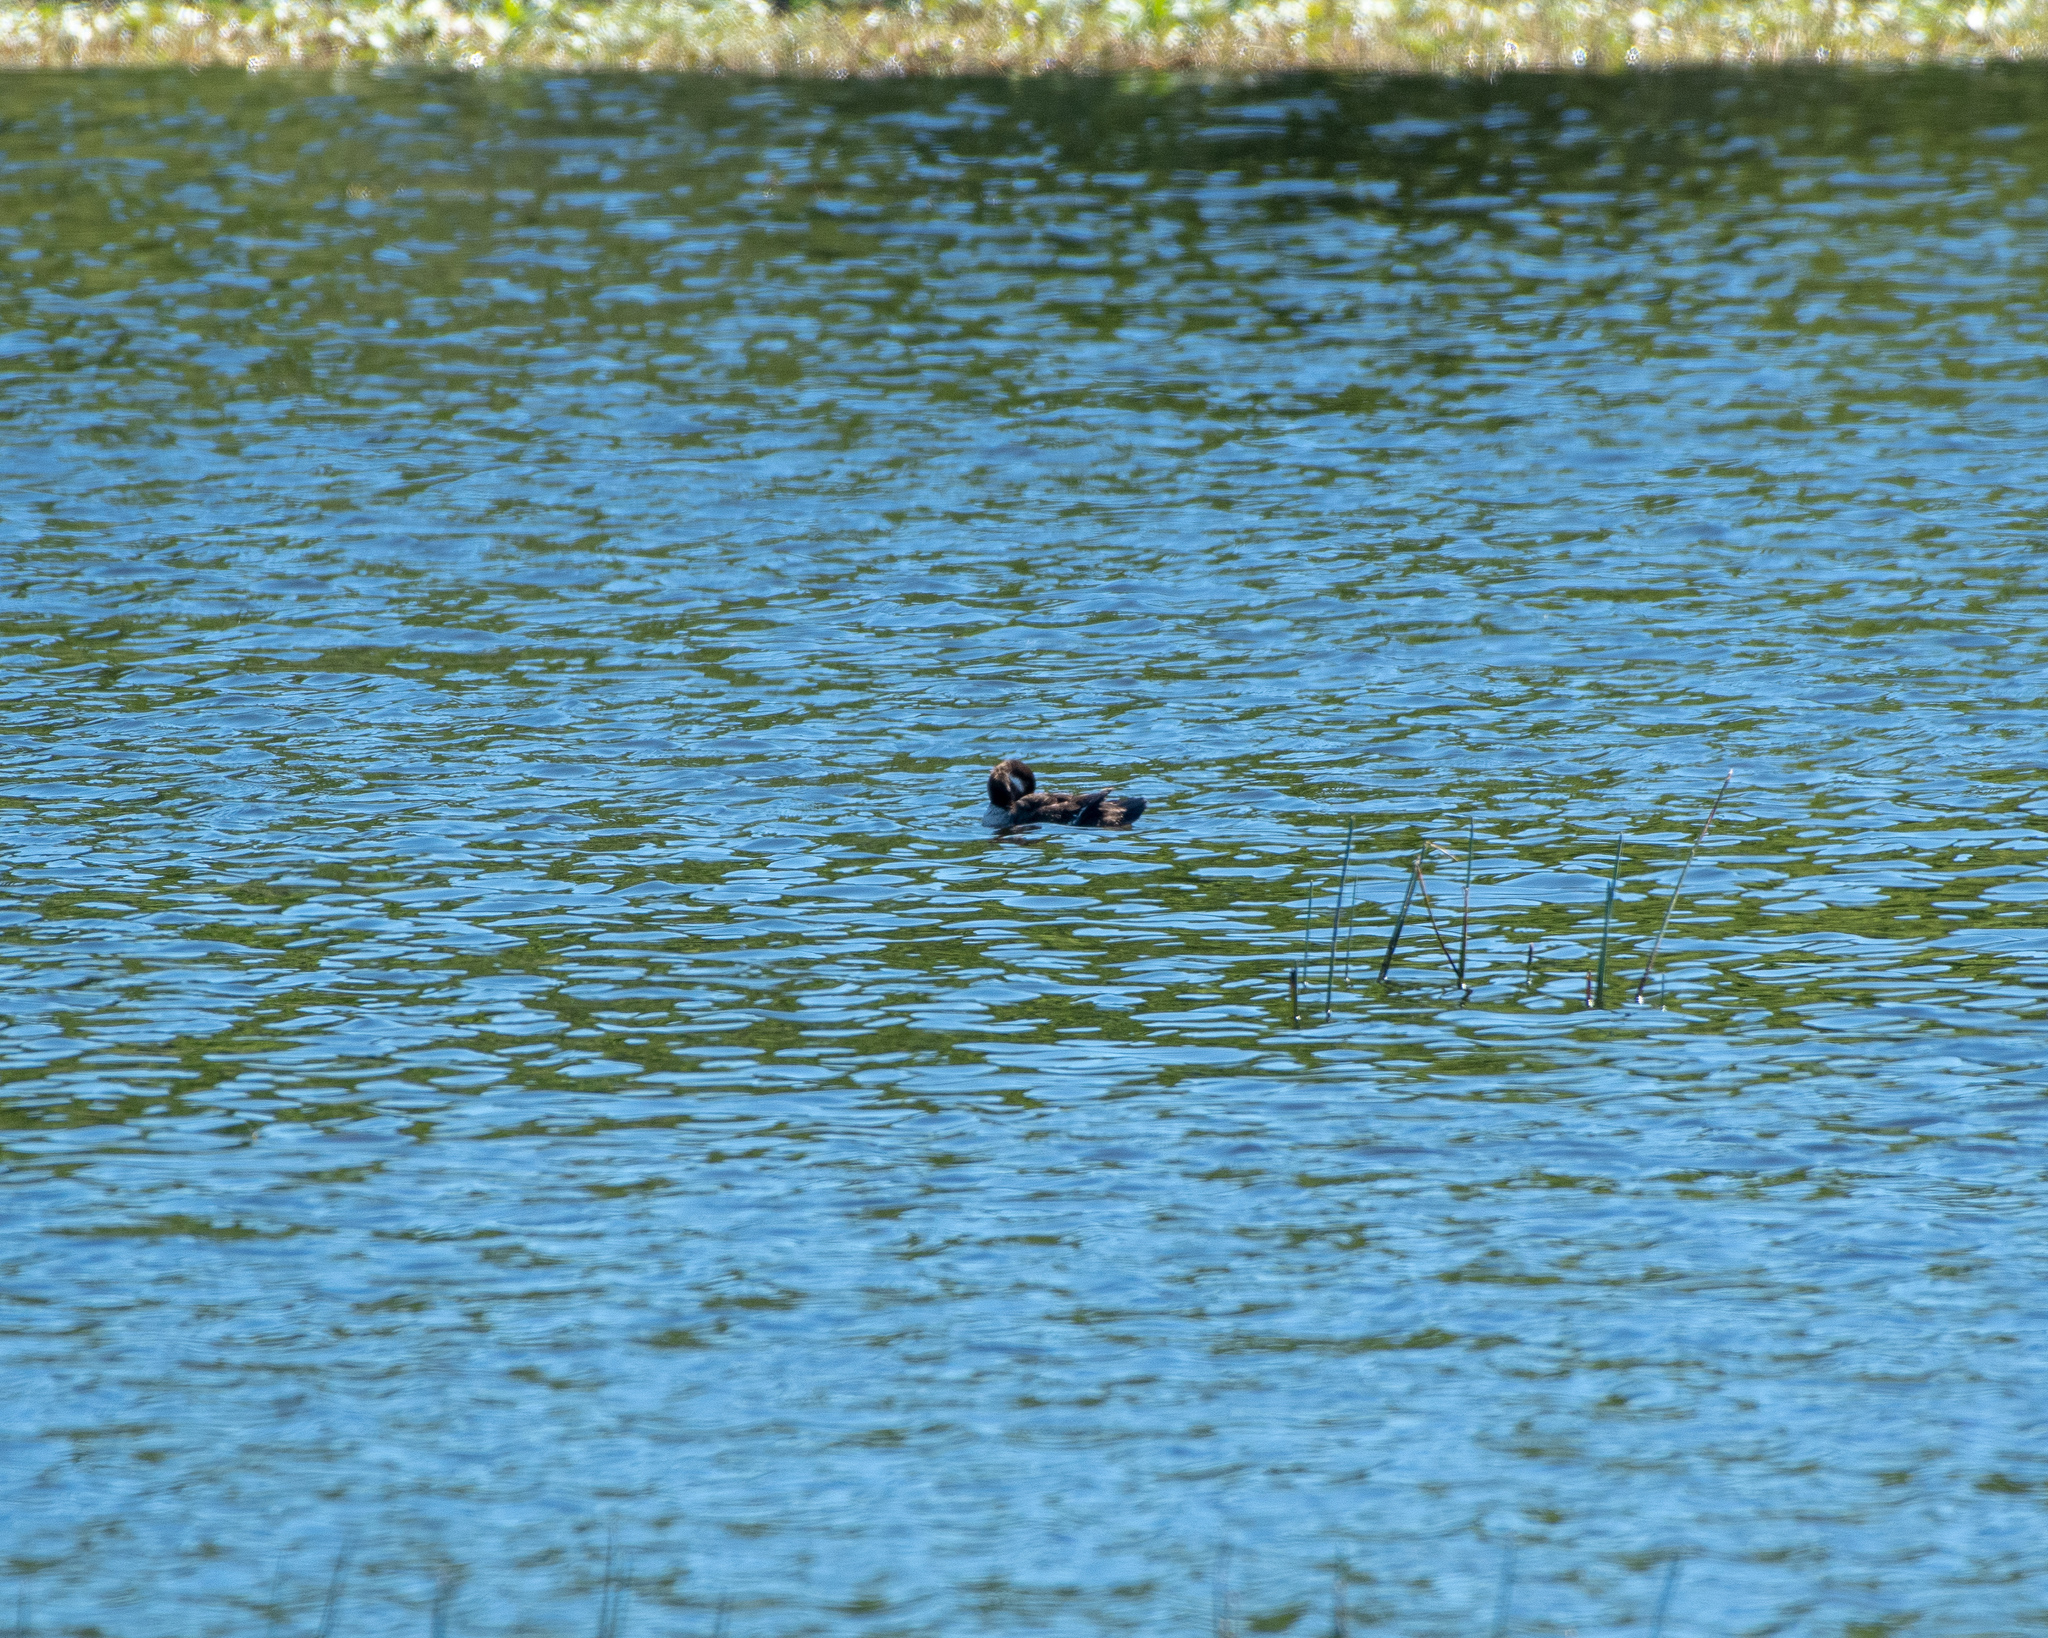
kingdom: Animalia
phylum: Chordata
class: Aves
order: Anseriformes
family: Anatidae
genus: Bucephala
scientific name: Bucephala albeola
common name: Bufflehead
